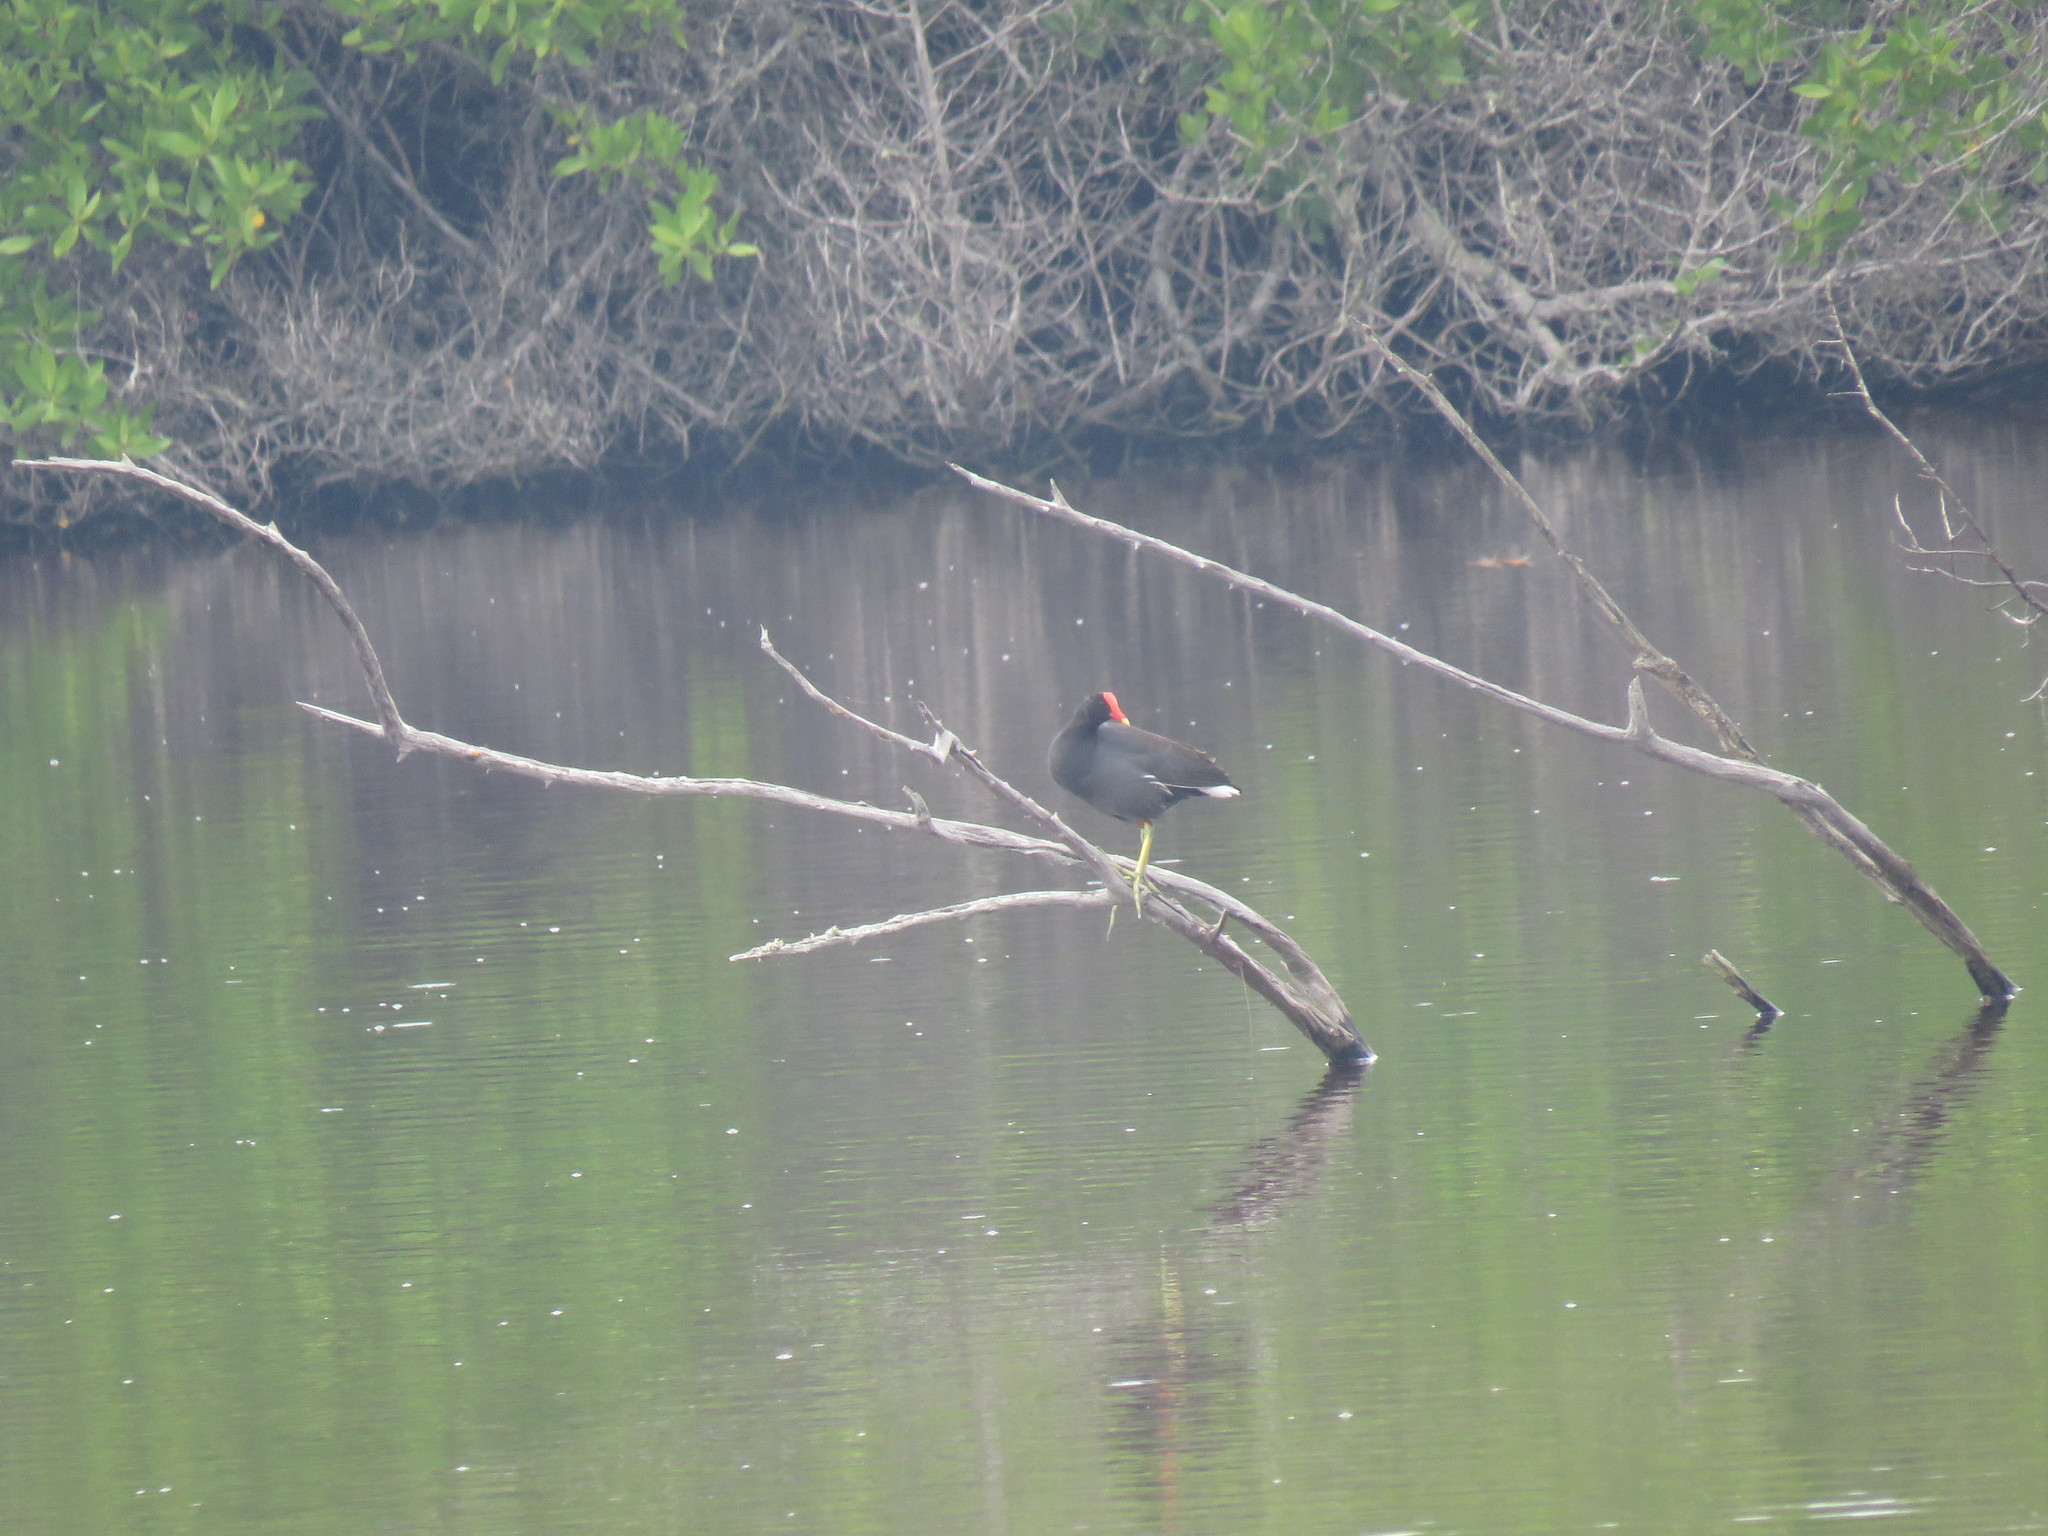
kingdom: Animalia
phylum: Chordata
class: Aves
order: Gruiformes
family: Rallidae
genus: Gallinula
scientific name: Gallinula chloropus
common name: Common moorhen
